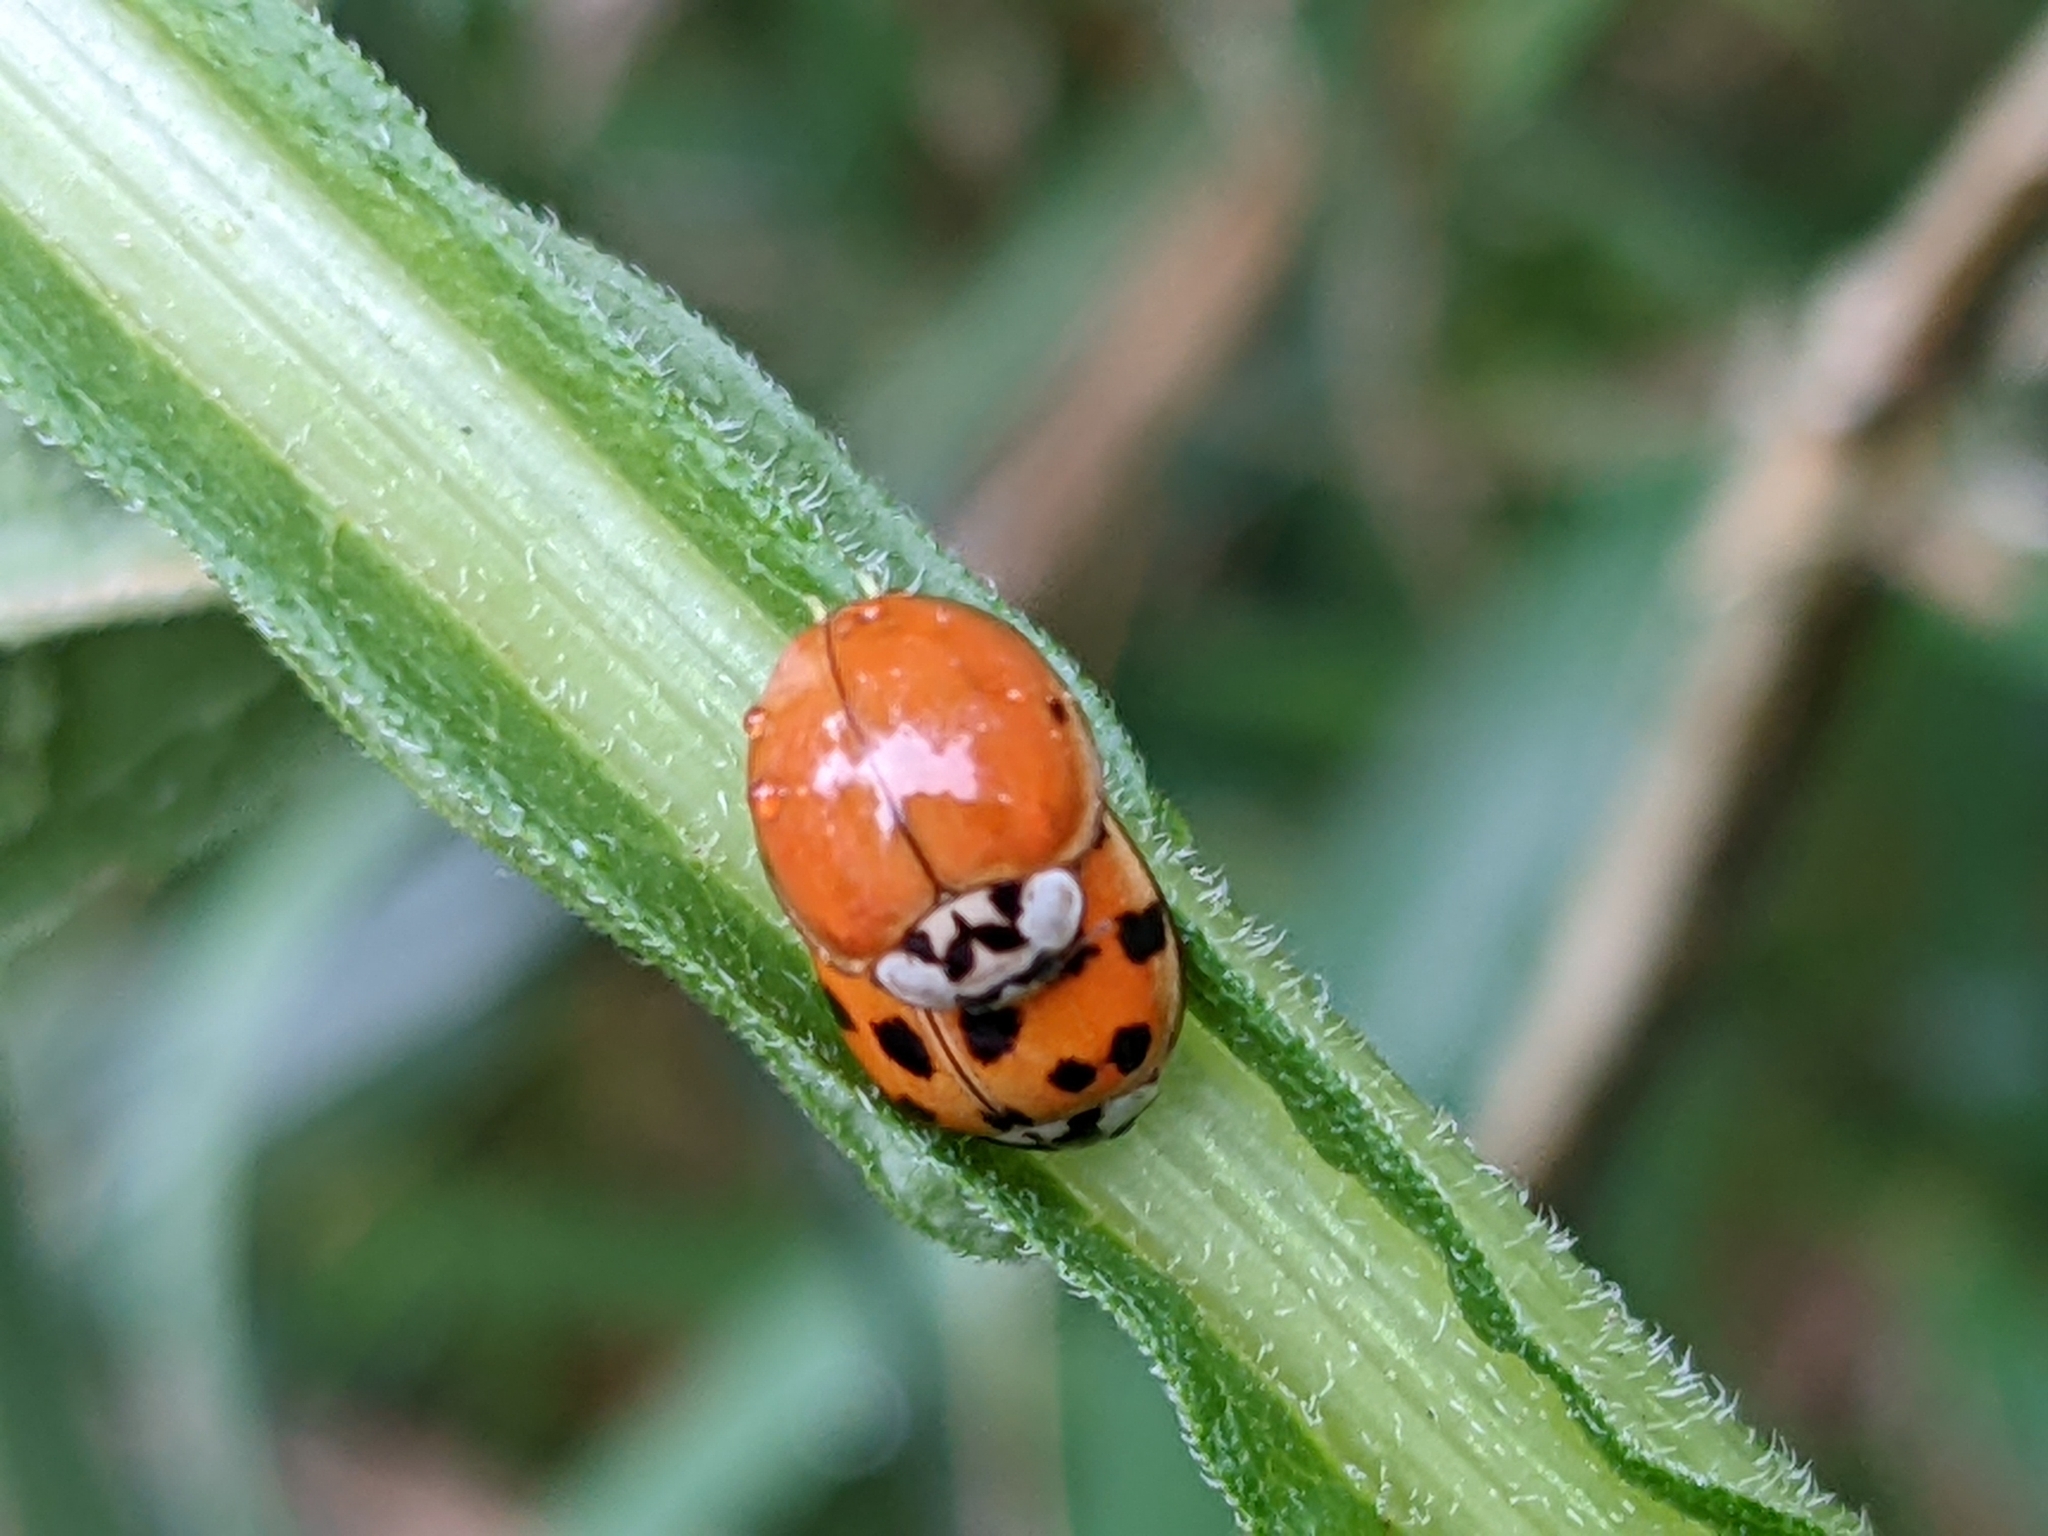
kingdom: Animalia
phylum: Arthropoda
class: Insecta
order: Coleoptera
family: Coccinellidae
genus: Harmonia
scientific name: Harmonia axyridis
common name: Harlequin ladybird
